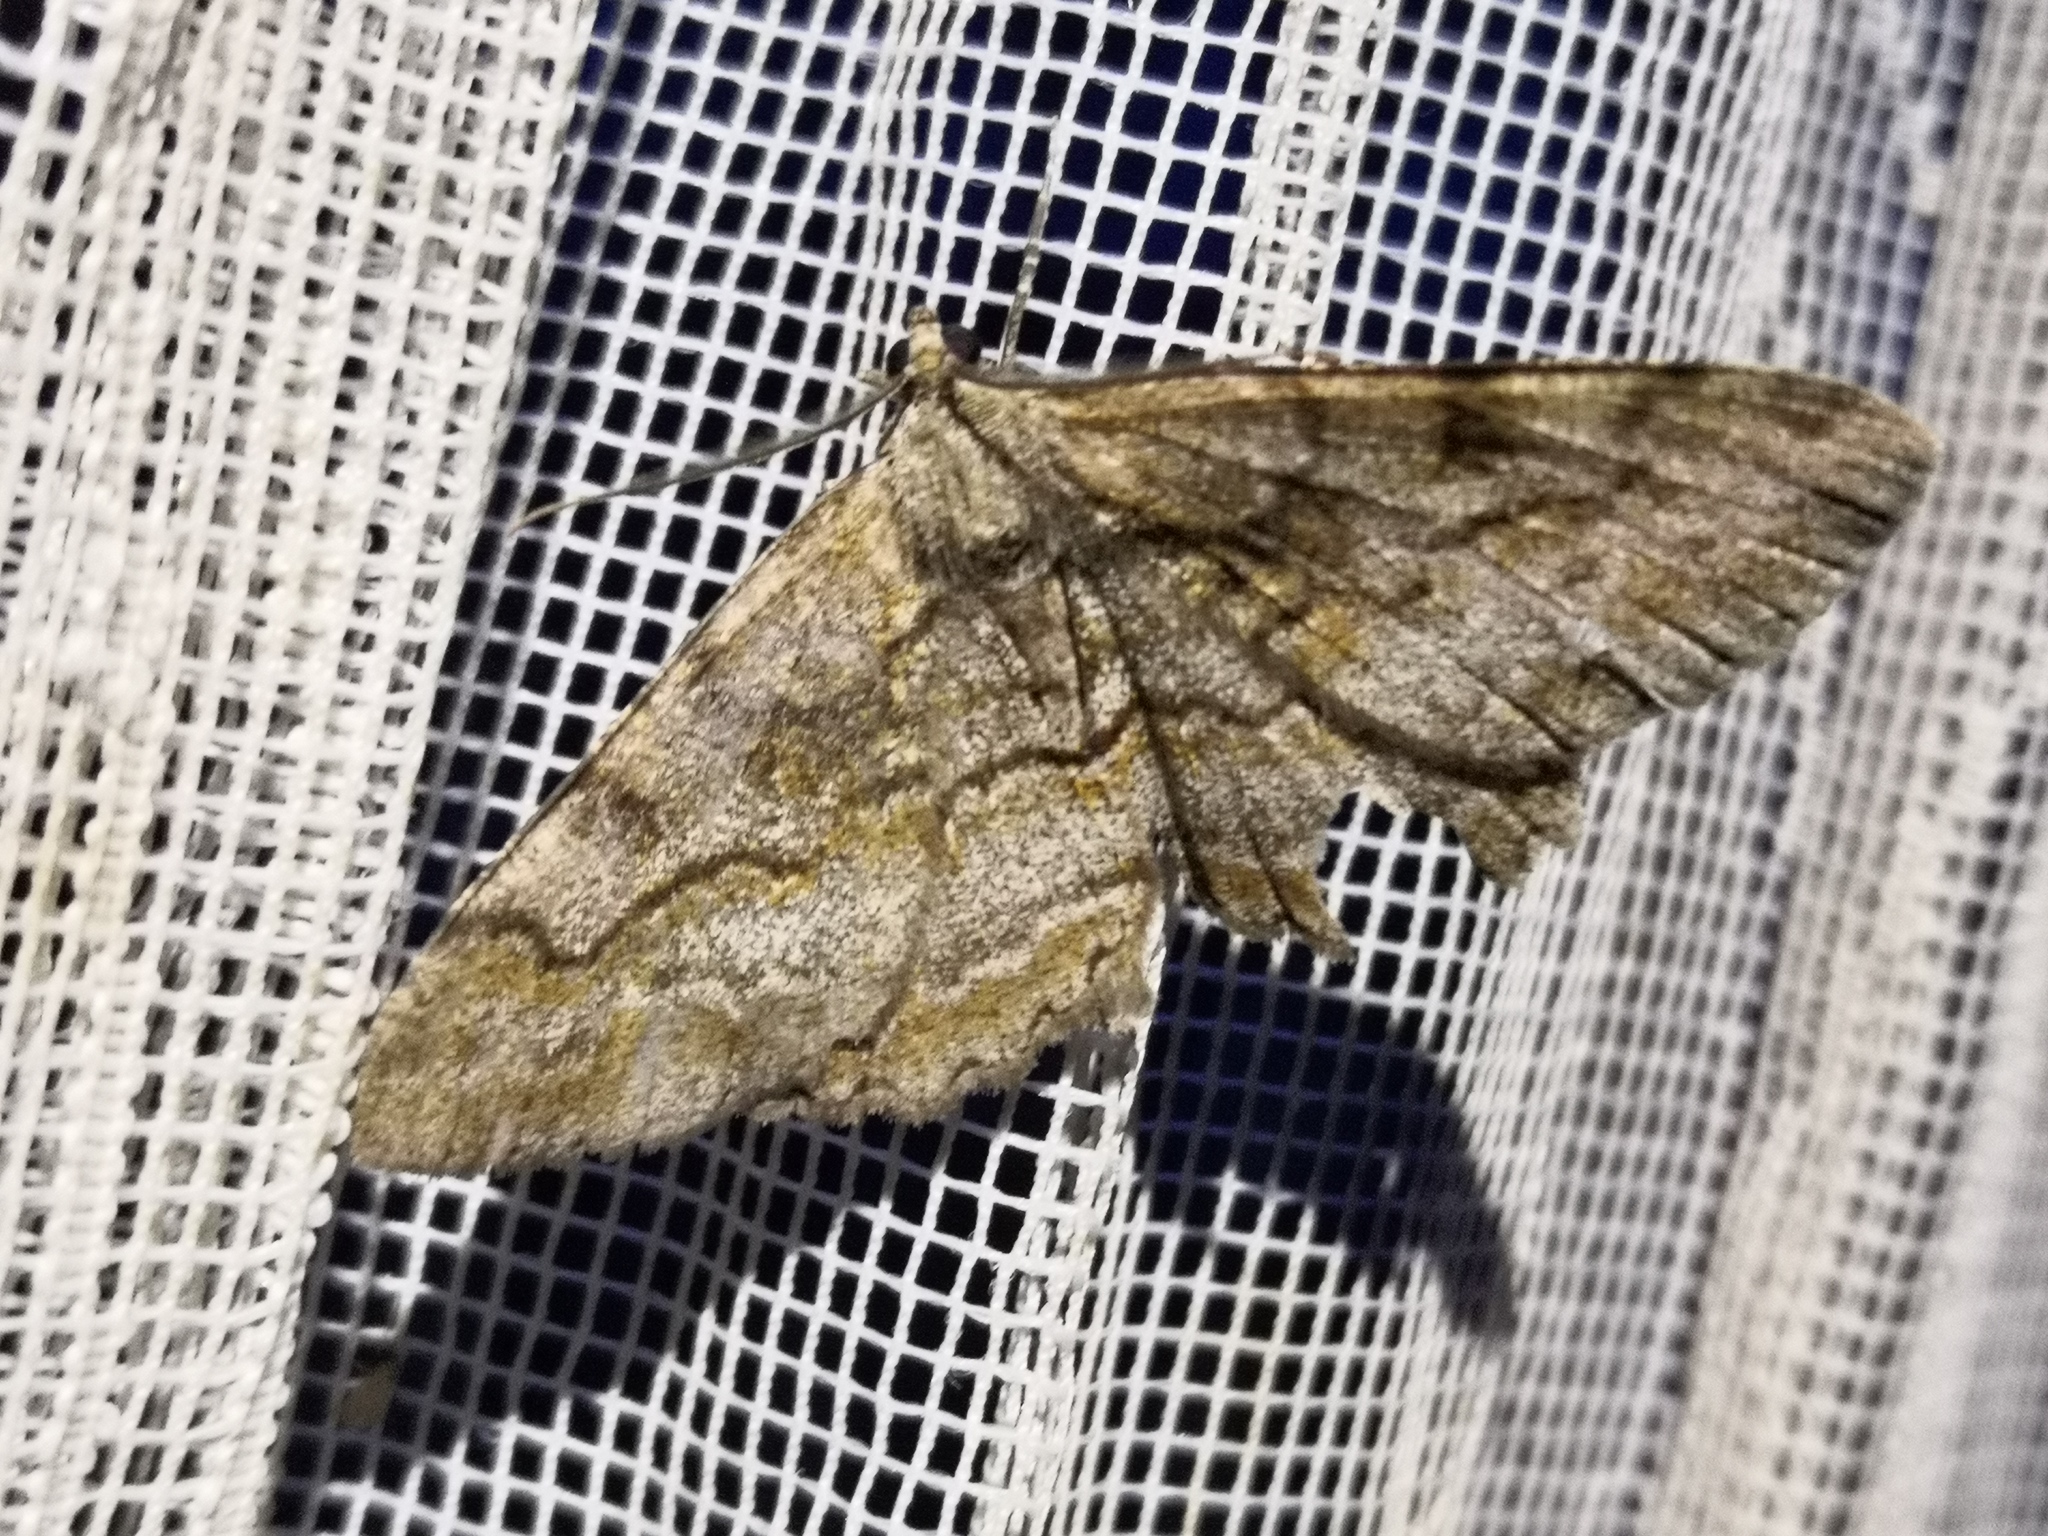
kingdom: Animalia
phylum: Arthropoda
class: Insecta
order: Lepidoptera
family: Geometridae
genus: Alcis
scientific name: Alcis repandata
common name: Mottled beauty
